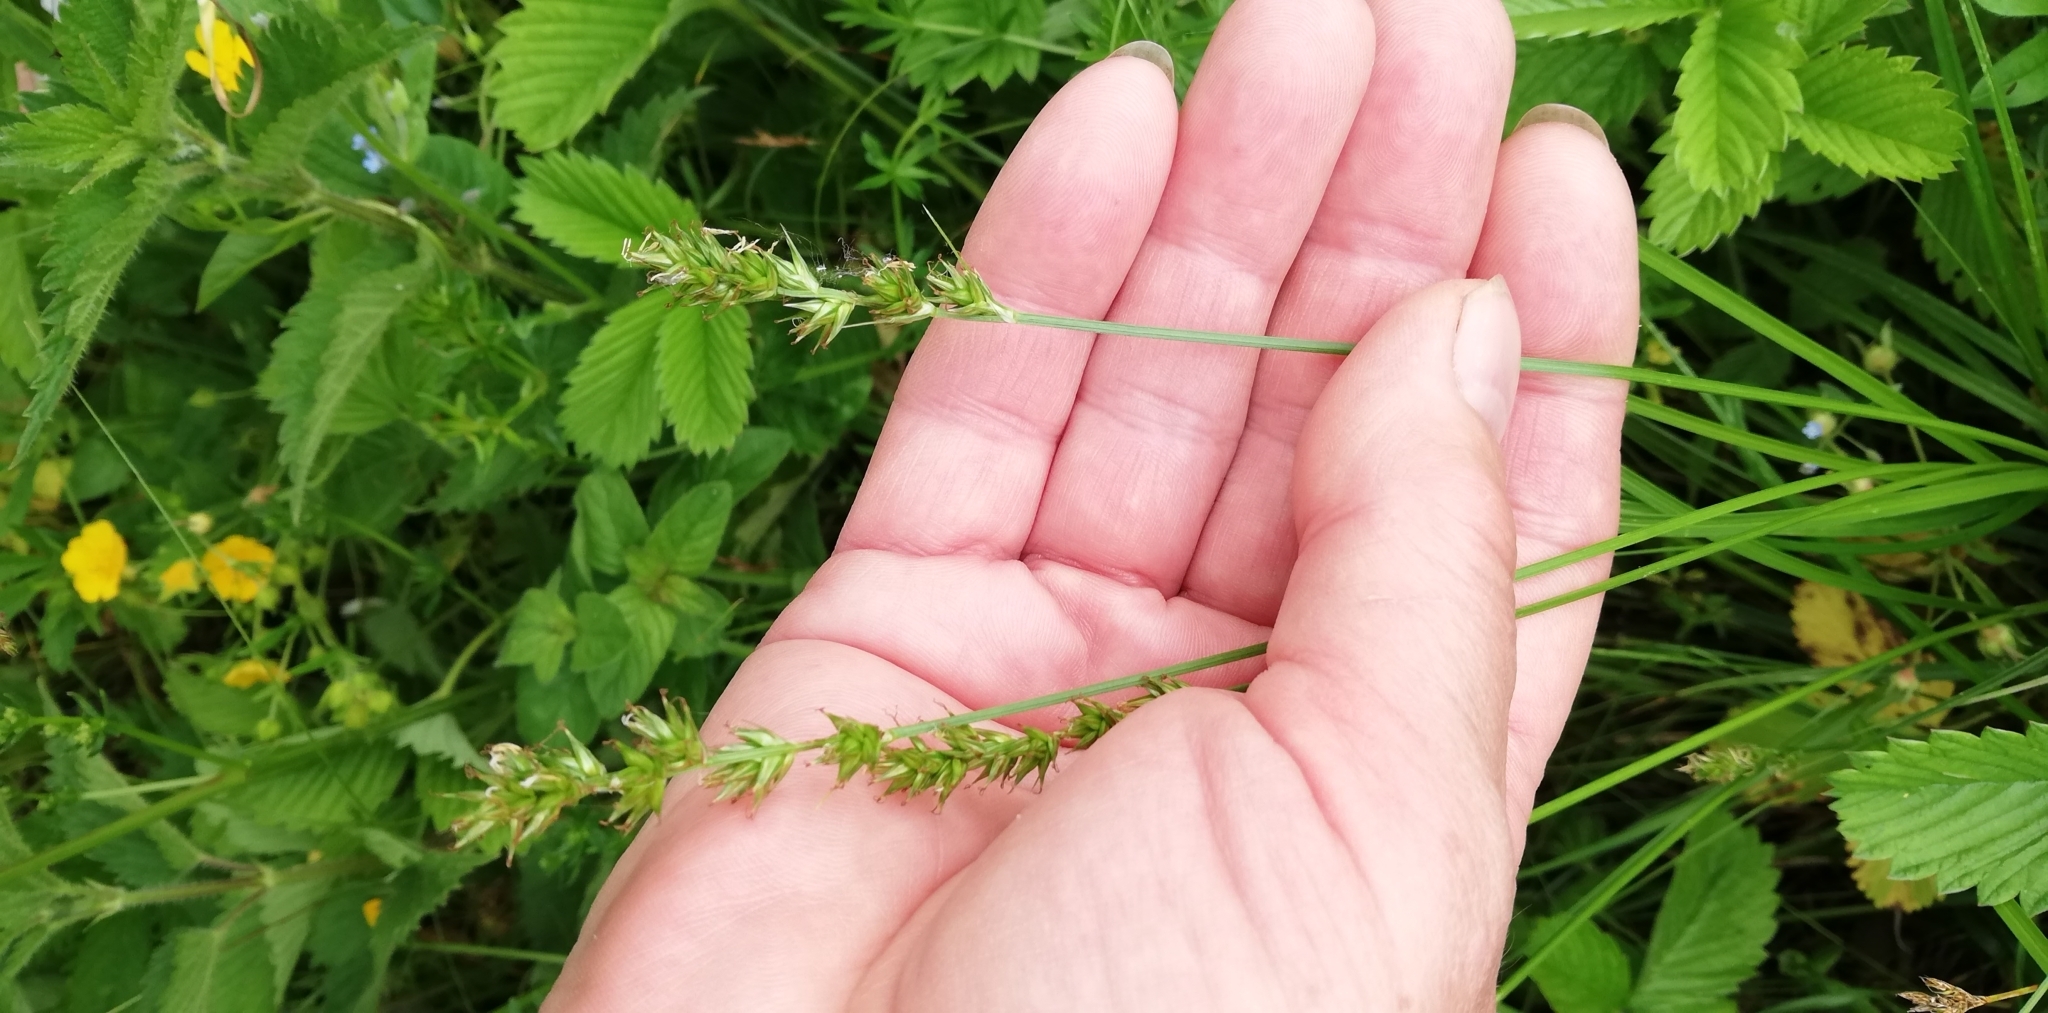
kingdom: Plantae
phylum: Tracheophyta
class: Liliopsida
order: Poales
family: Cyperaceae
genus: Carex
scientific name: Carex spicata
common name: Spiked sedge
